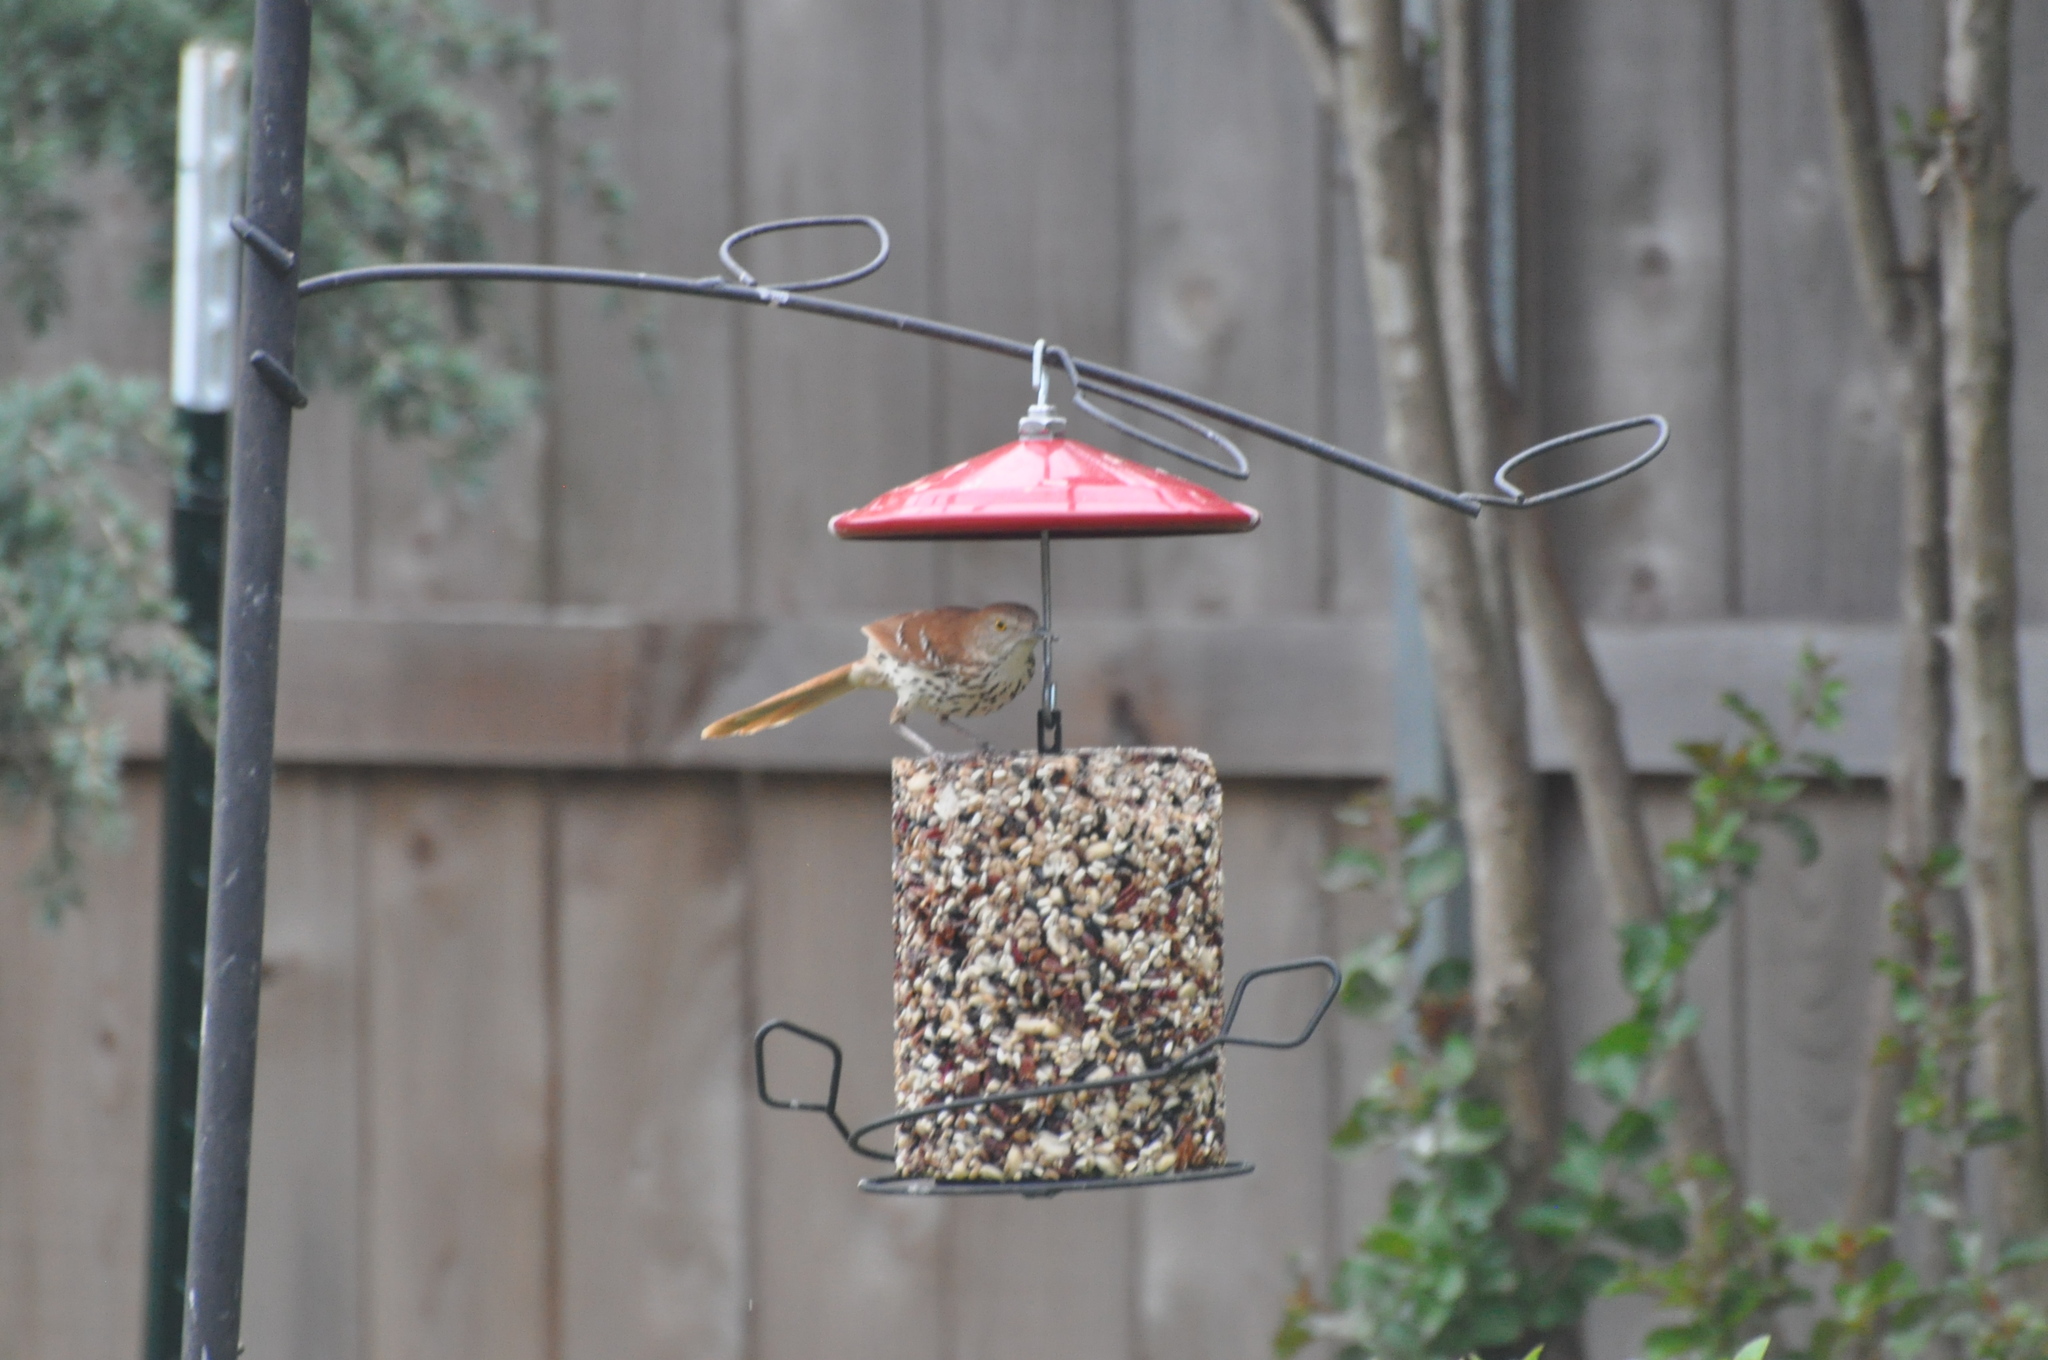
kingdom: Animalia
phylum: Chordata
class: Aves
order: Passeriformes
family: Mimidae
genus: Toxostoma
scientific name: Toxostoma rufum
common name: Brown thrasher
